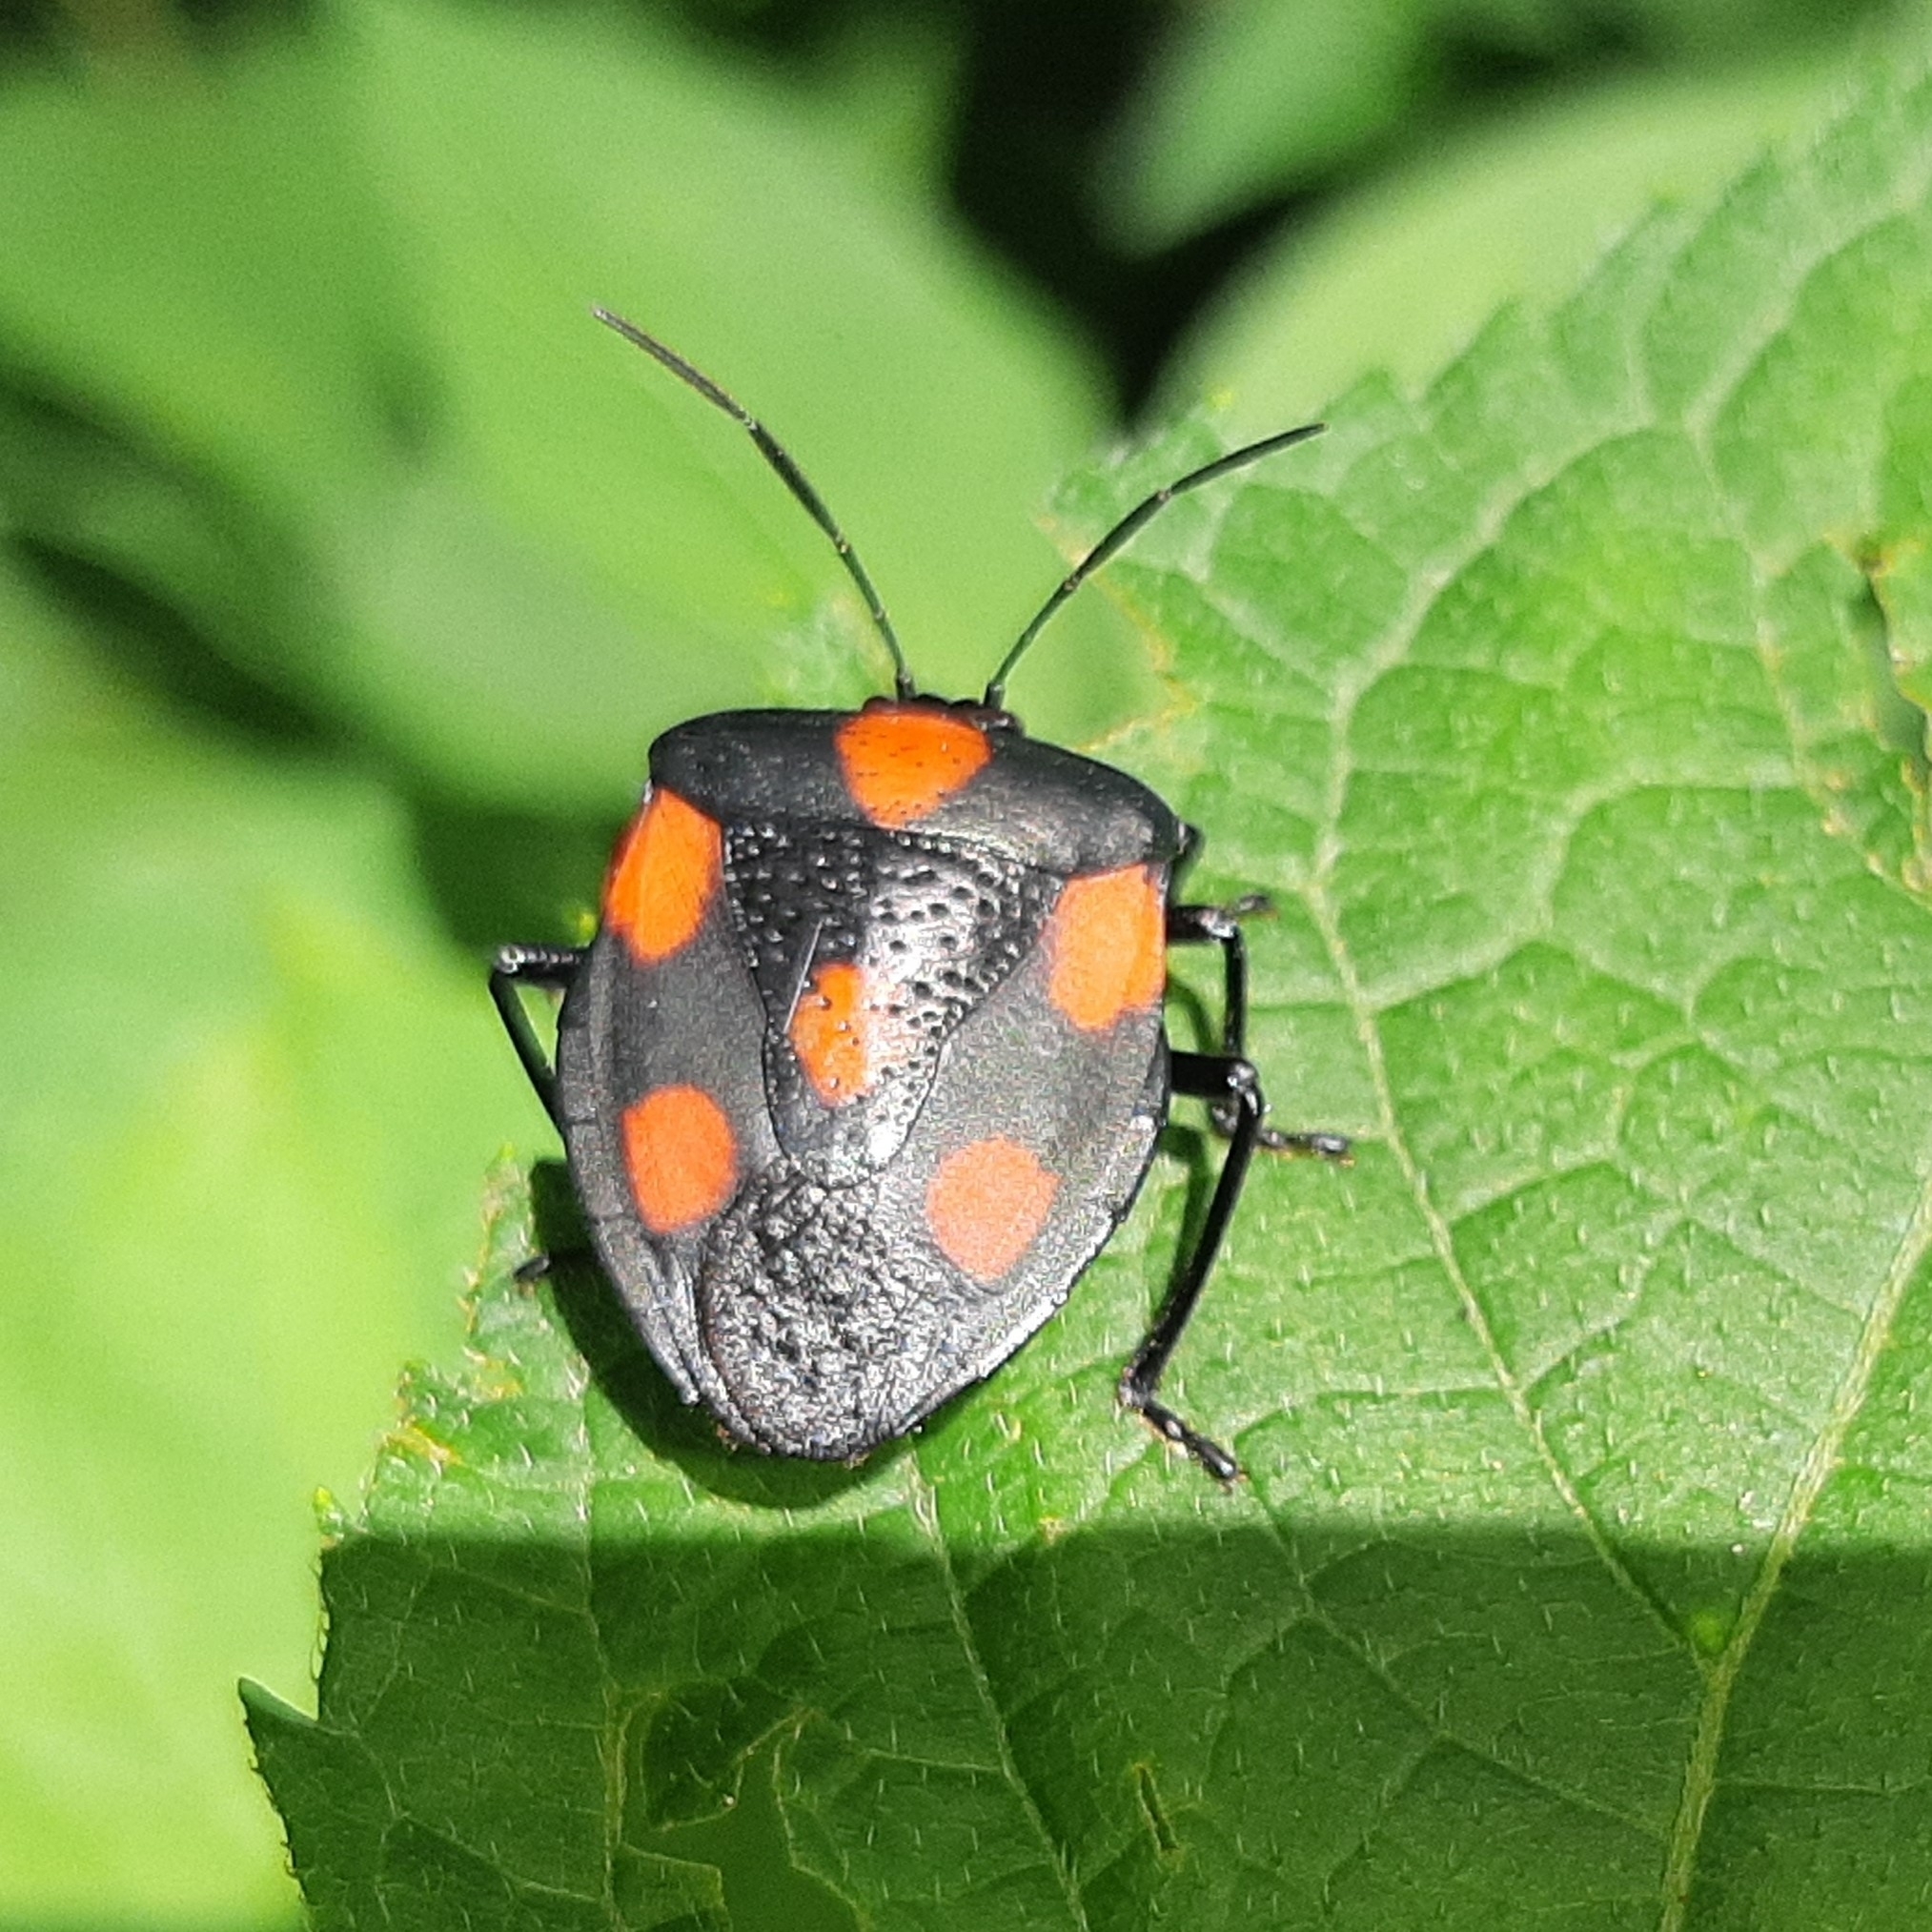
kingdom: Animalia
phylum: Arthropoda
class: Insecta
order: Hemiptera
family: Pentatomidae
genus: Brachystethus
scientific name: Brachystethus rubromaculatus
